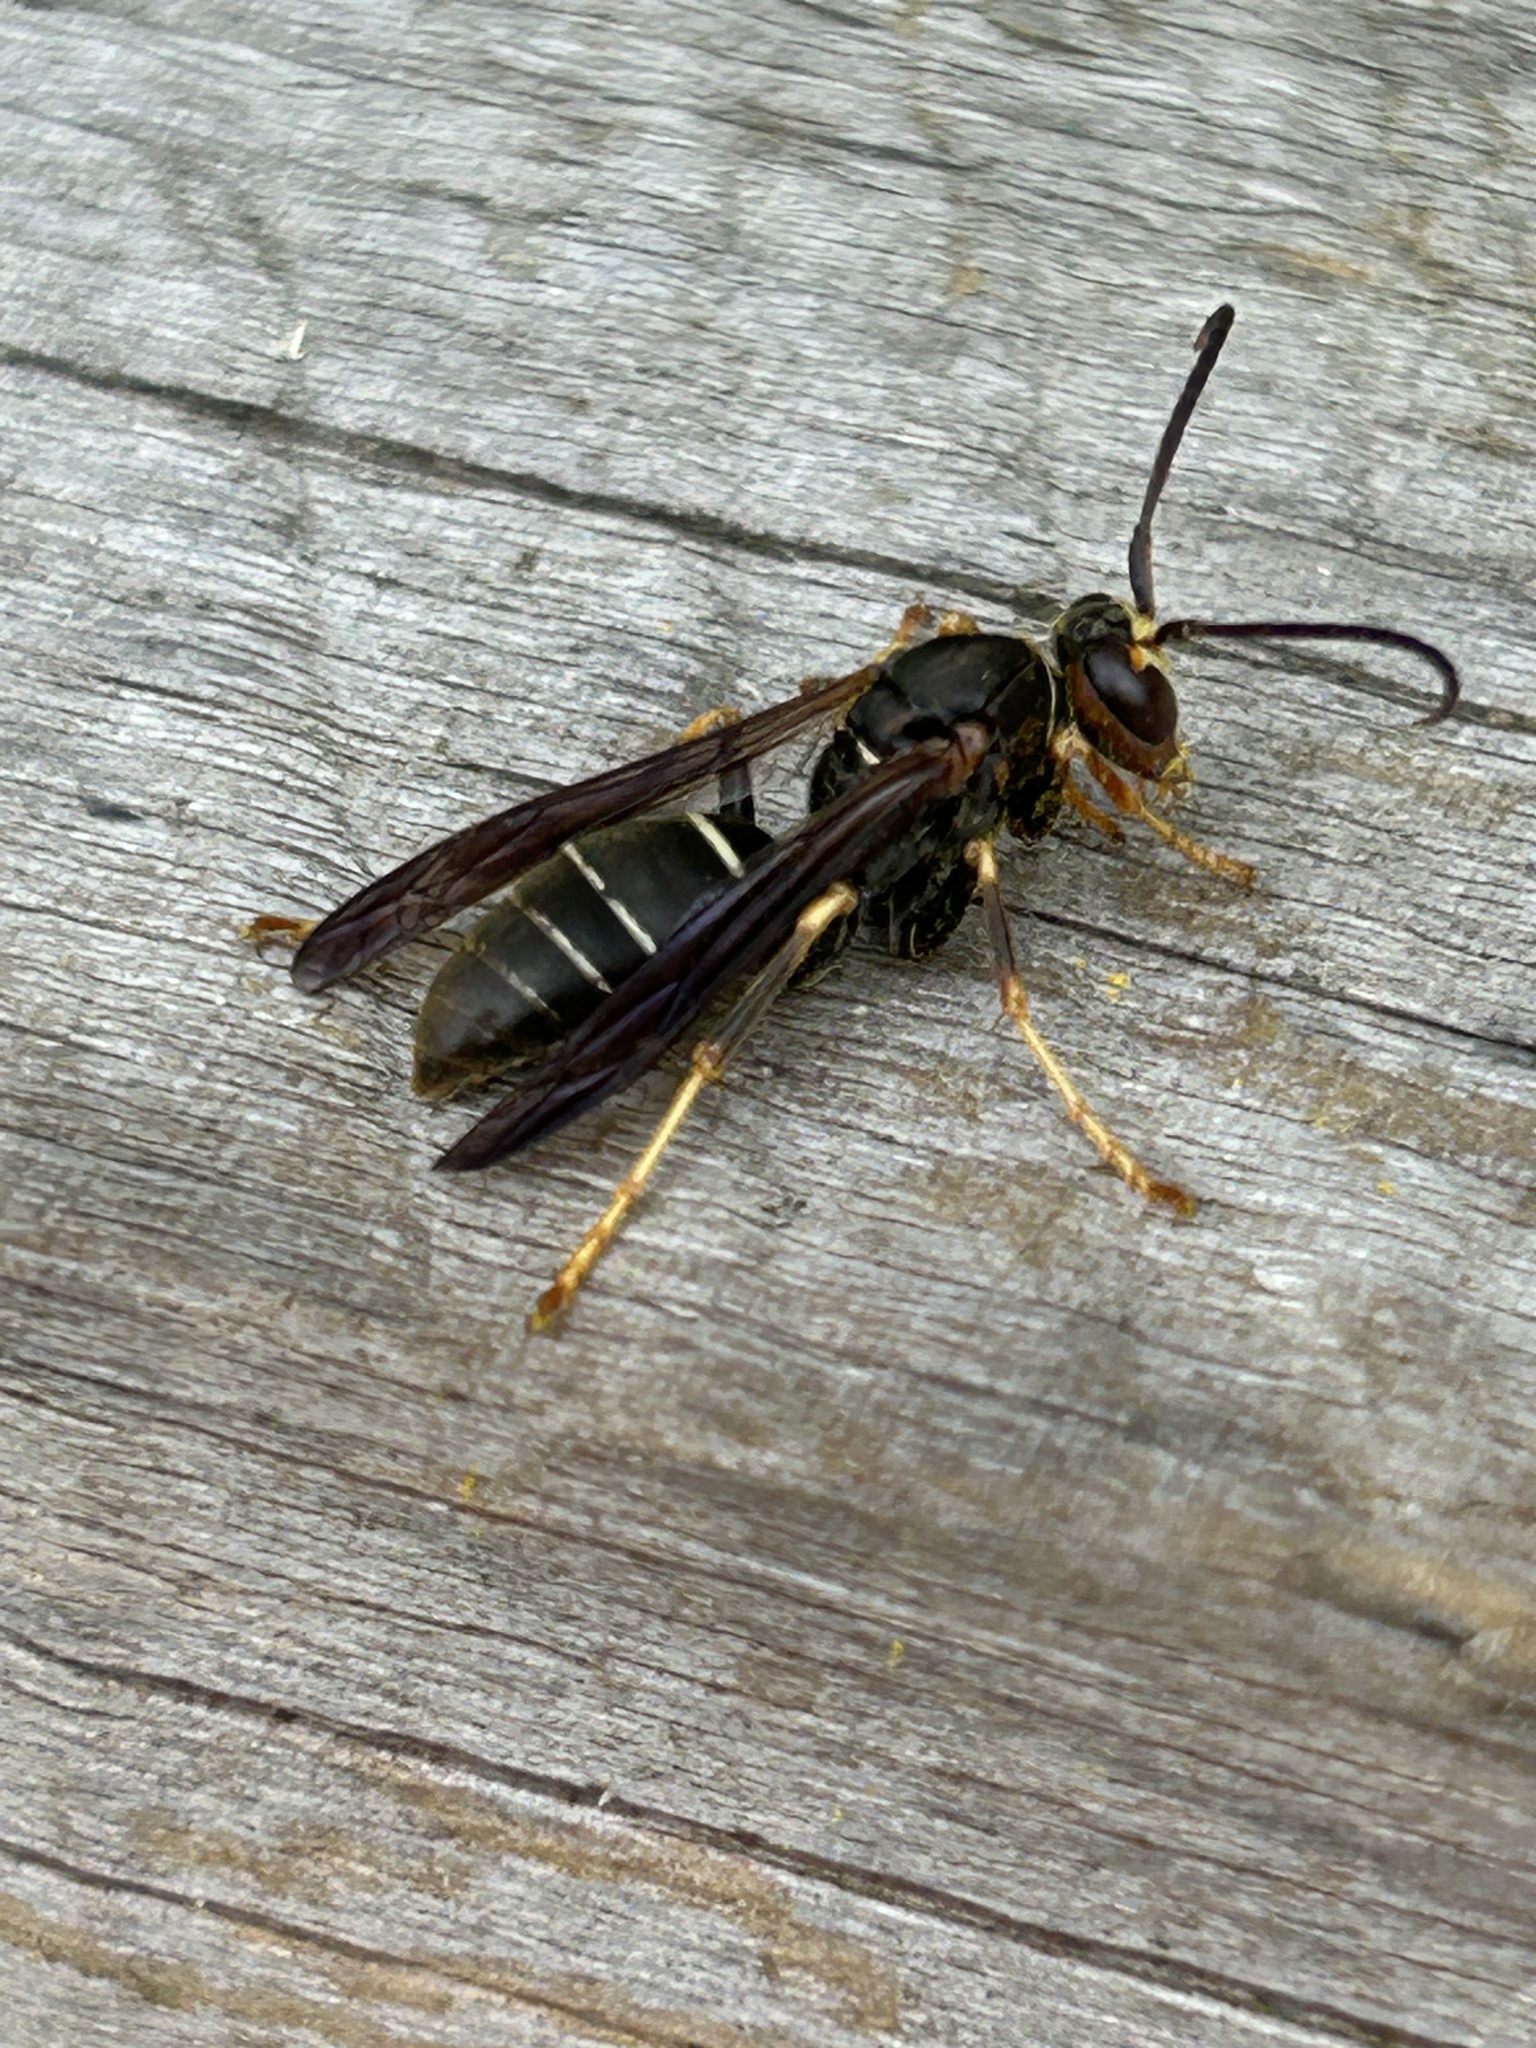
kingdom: Animalia
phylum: Arthropoda
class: Insecta
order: Hymenoptera
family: Eumenidae
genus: Polistes
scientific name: Polistes fuscatus
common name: Dark paper wasp
